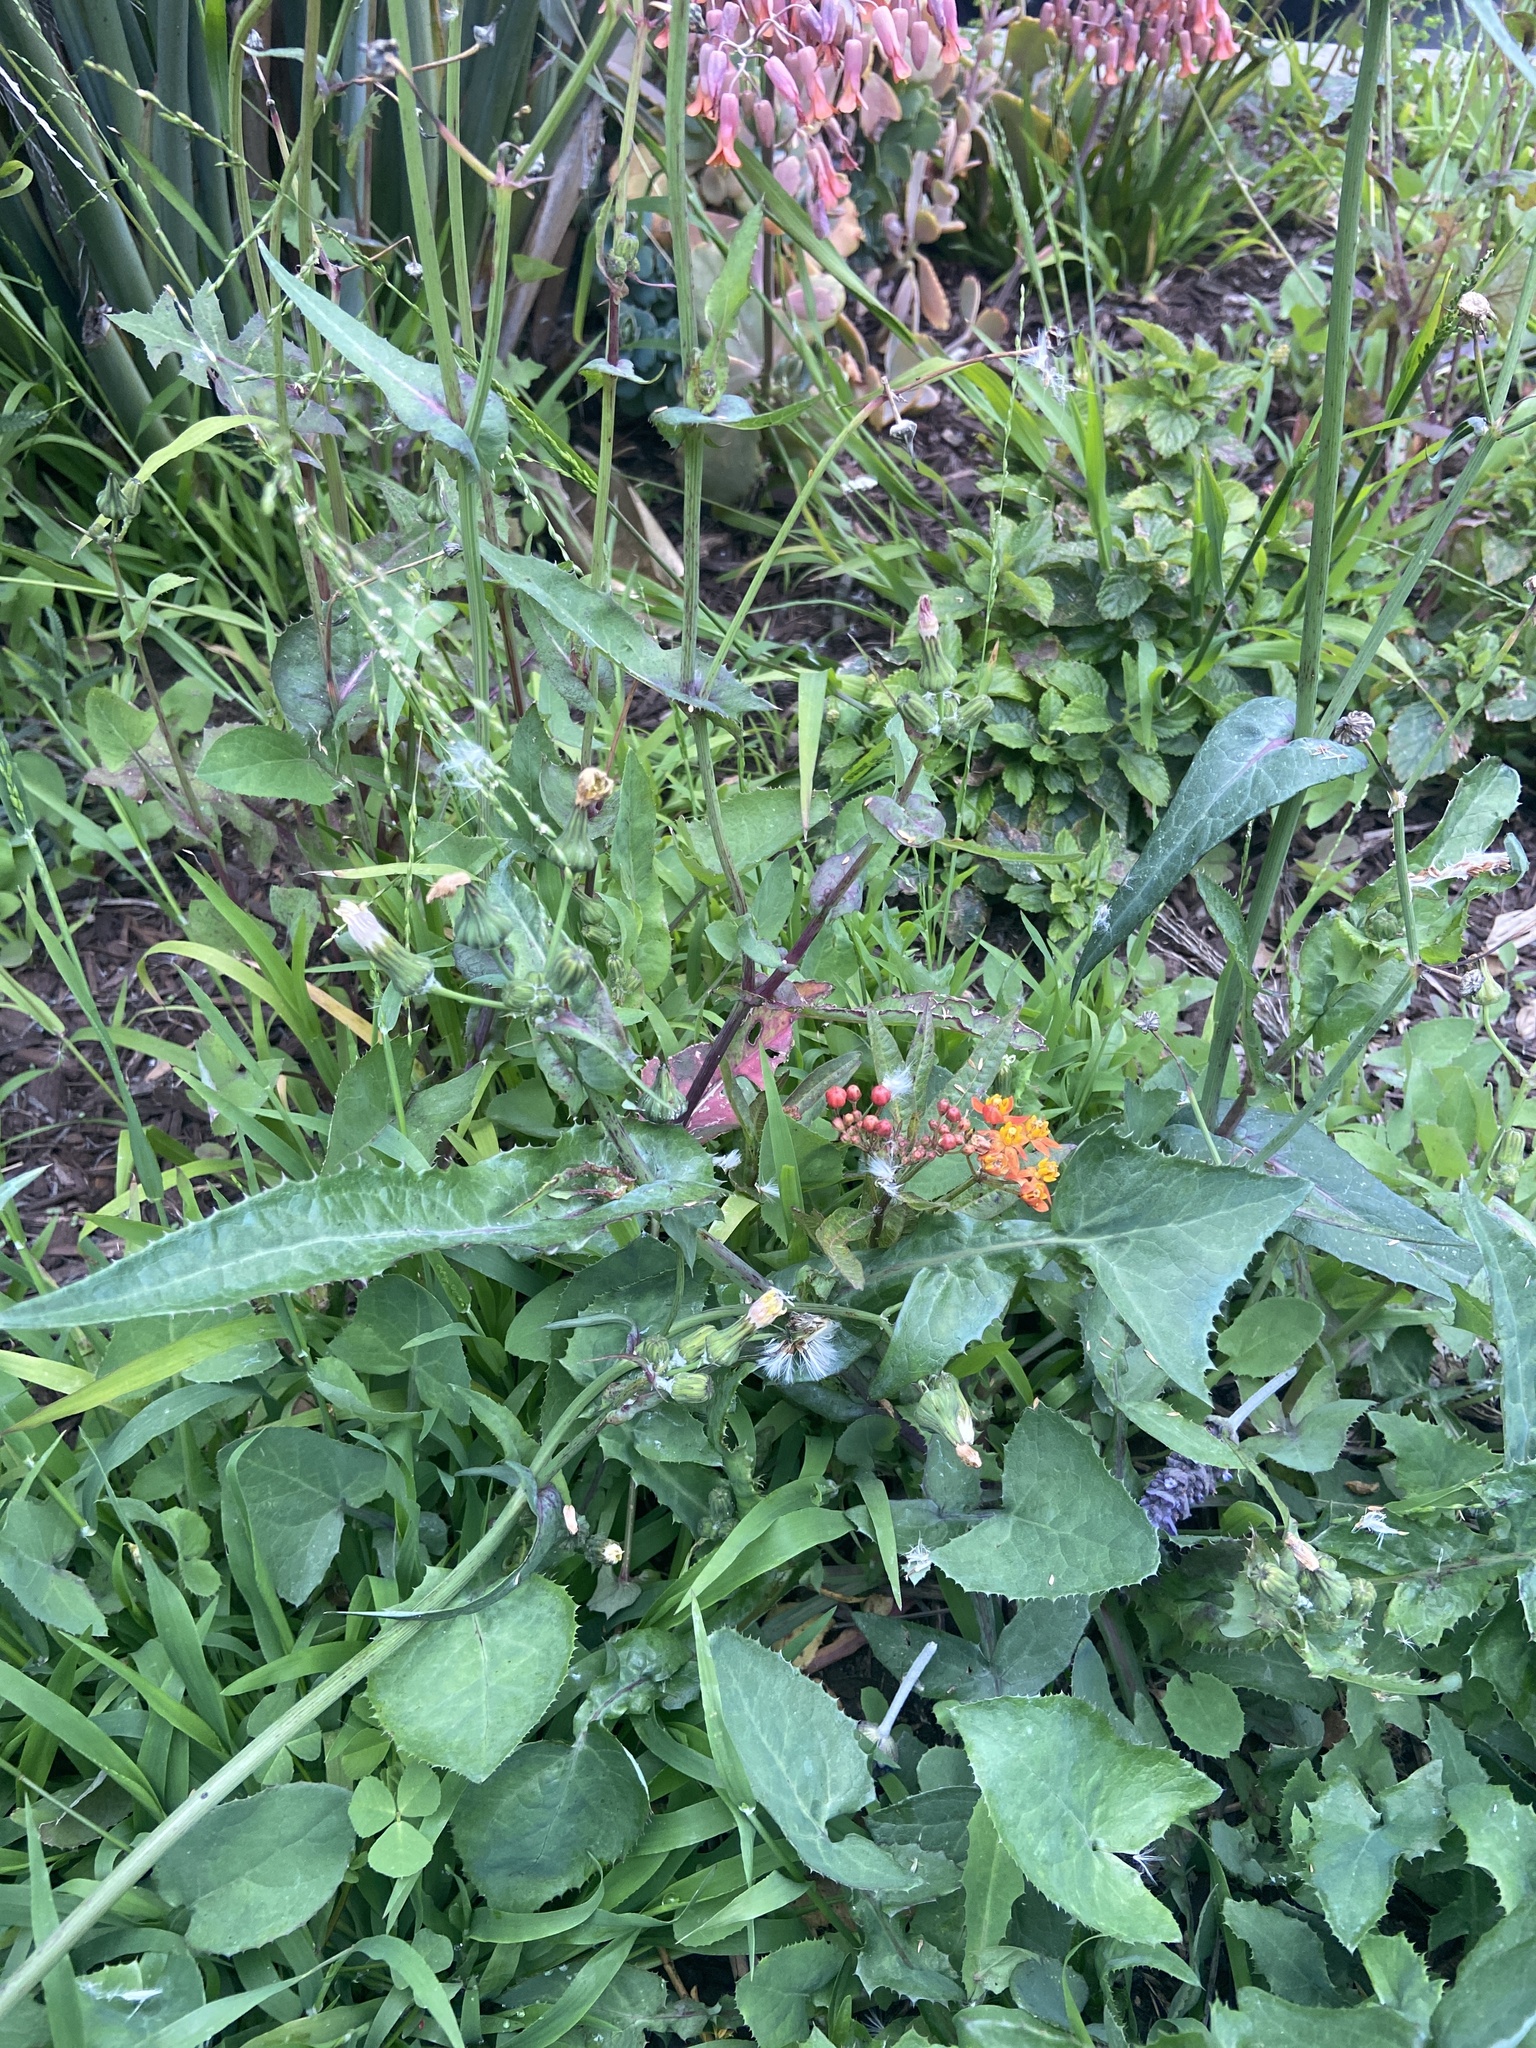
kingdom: Plantae
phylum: Tracheophyta
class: Magnoliopsida
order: Gentianales
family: Apocynaceae
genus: Asclepias
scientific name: Asclepias curassavica
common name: Bloodflower
